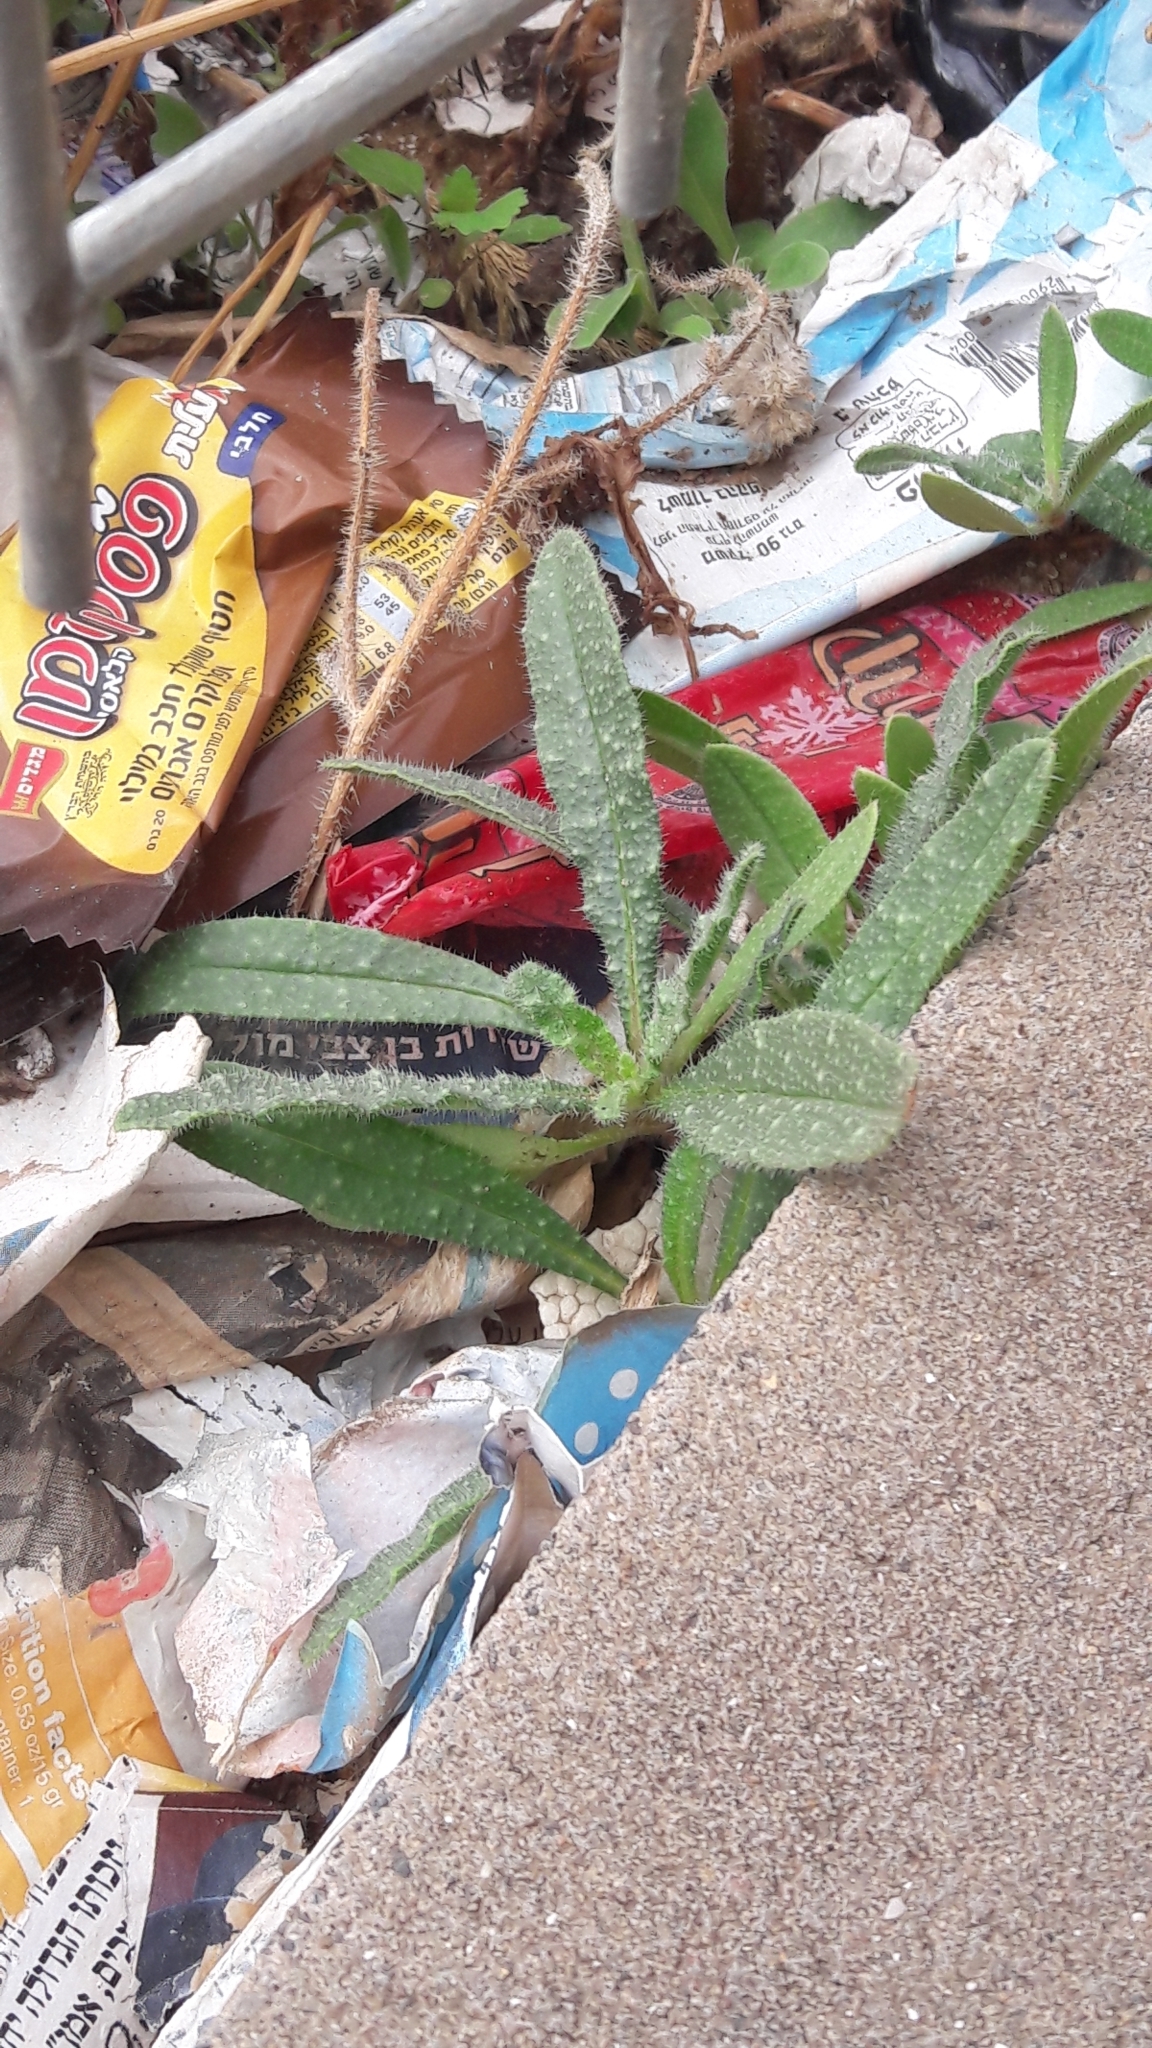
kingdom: Plantae
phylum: Tracheophyta
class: Magnoliopsida
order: Asterales
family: Asteraceae
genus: Helminthotheca
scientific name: Helminthotheca echioides
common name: Ox-tongue
